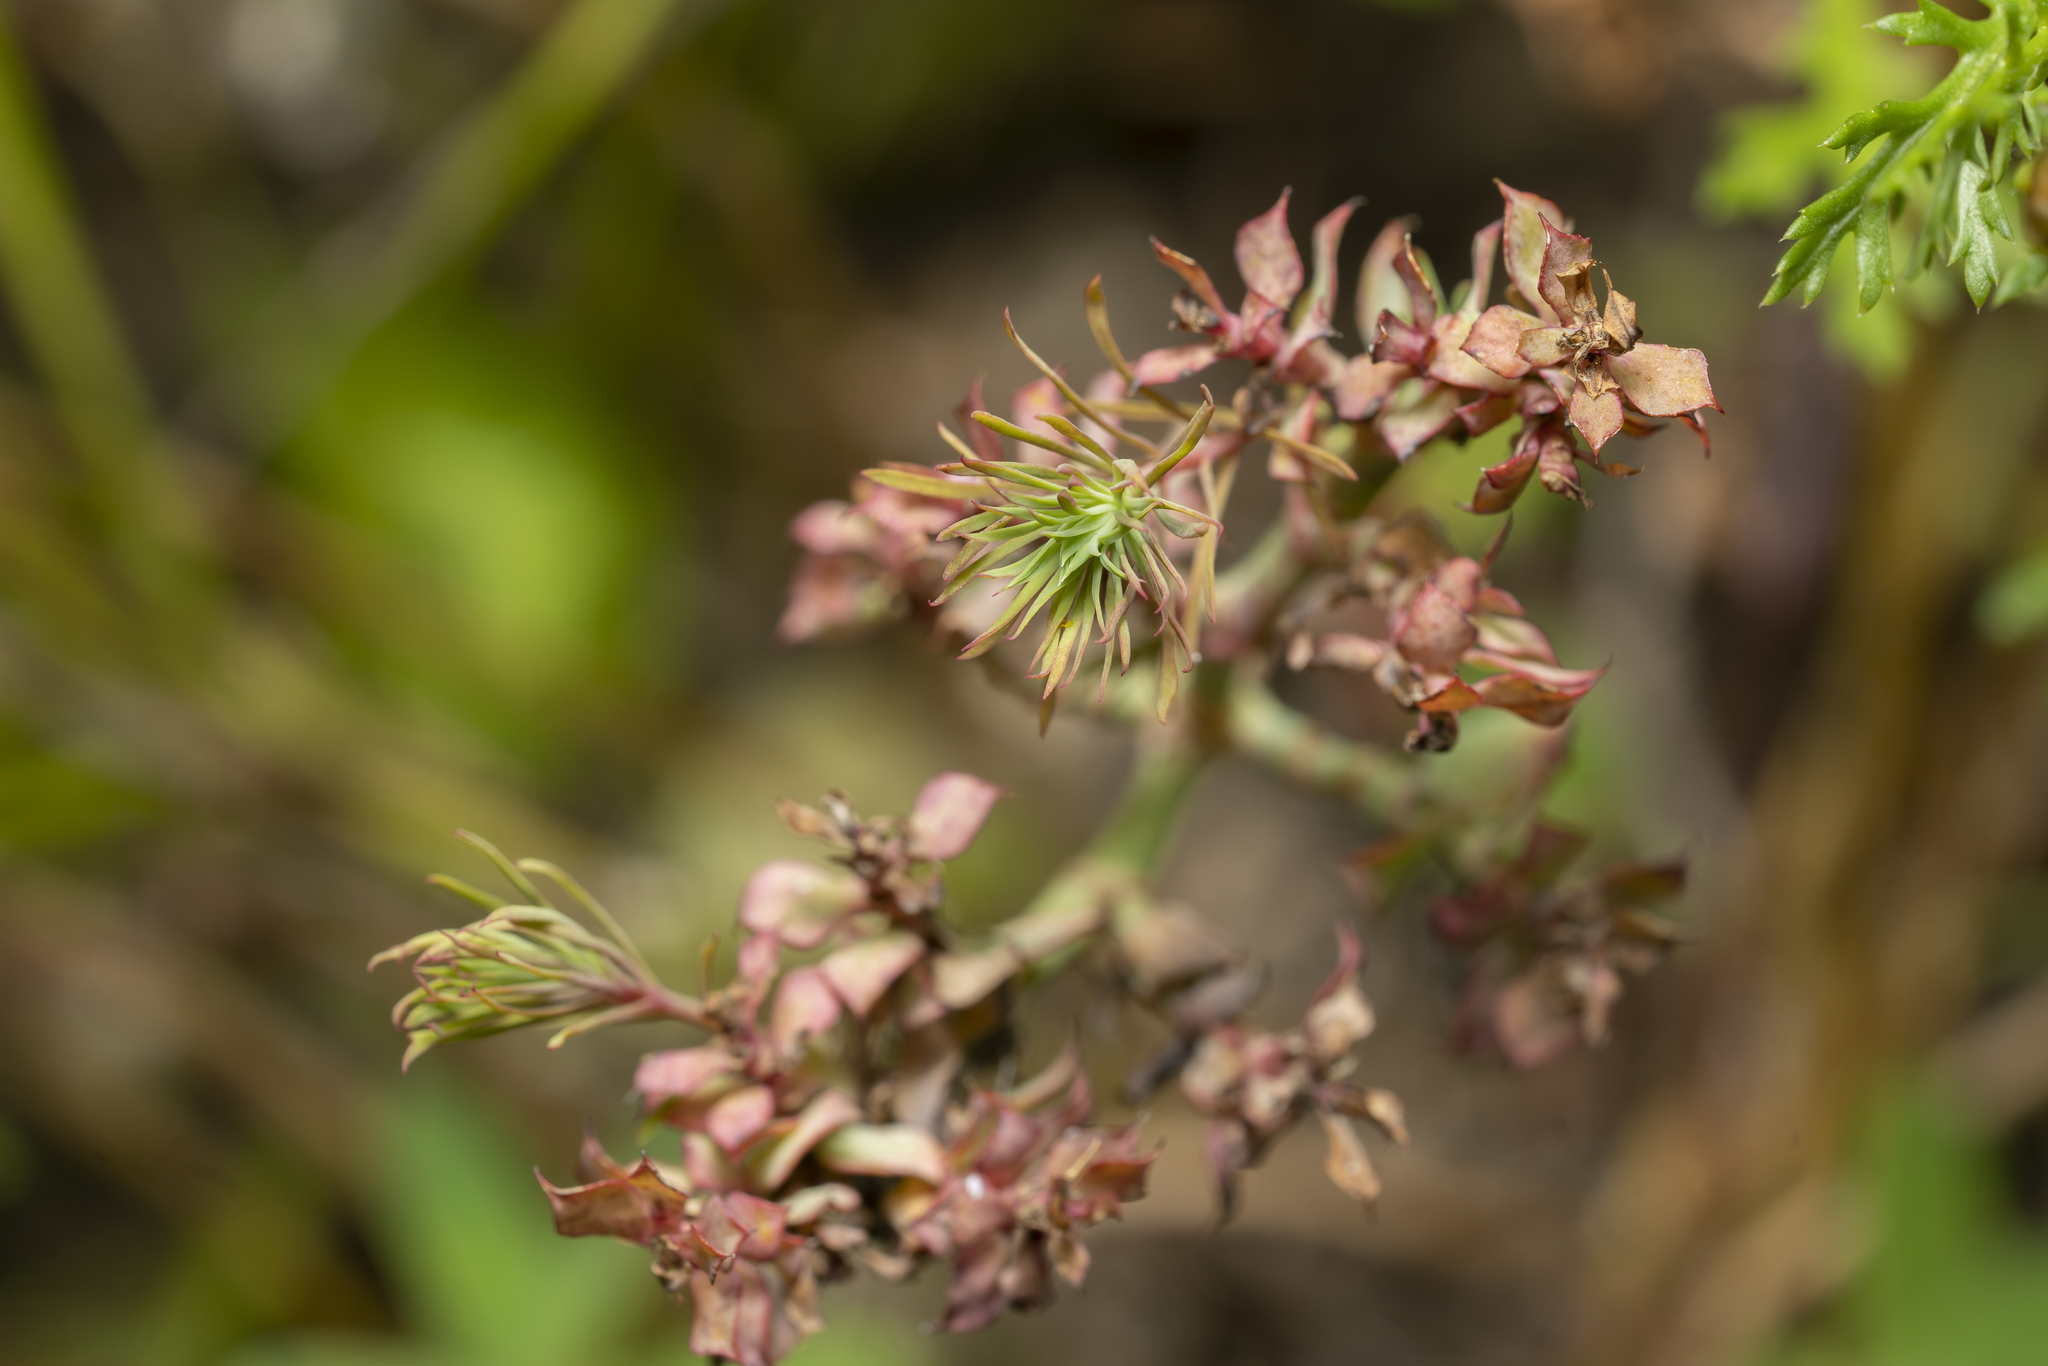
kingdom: Plantae
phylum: Tracheophyta
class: Magnoliopsida
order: Malpighiales
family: Euphorbiaceae
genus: Euphorbia
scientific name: Euphorbia aleppica
